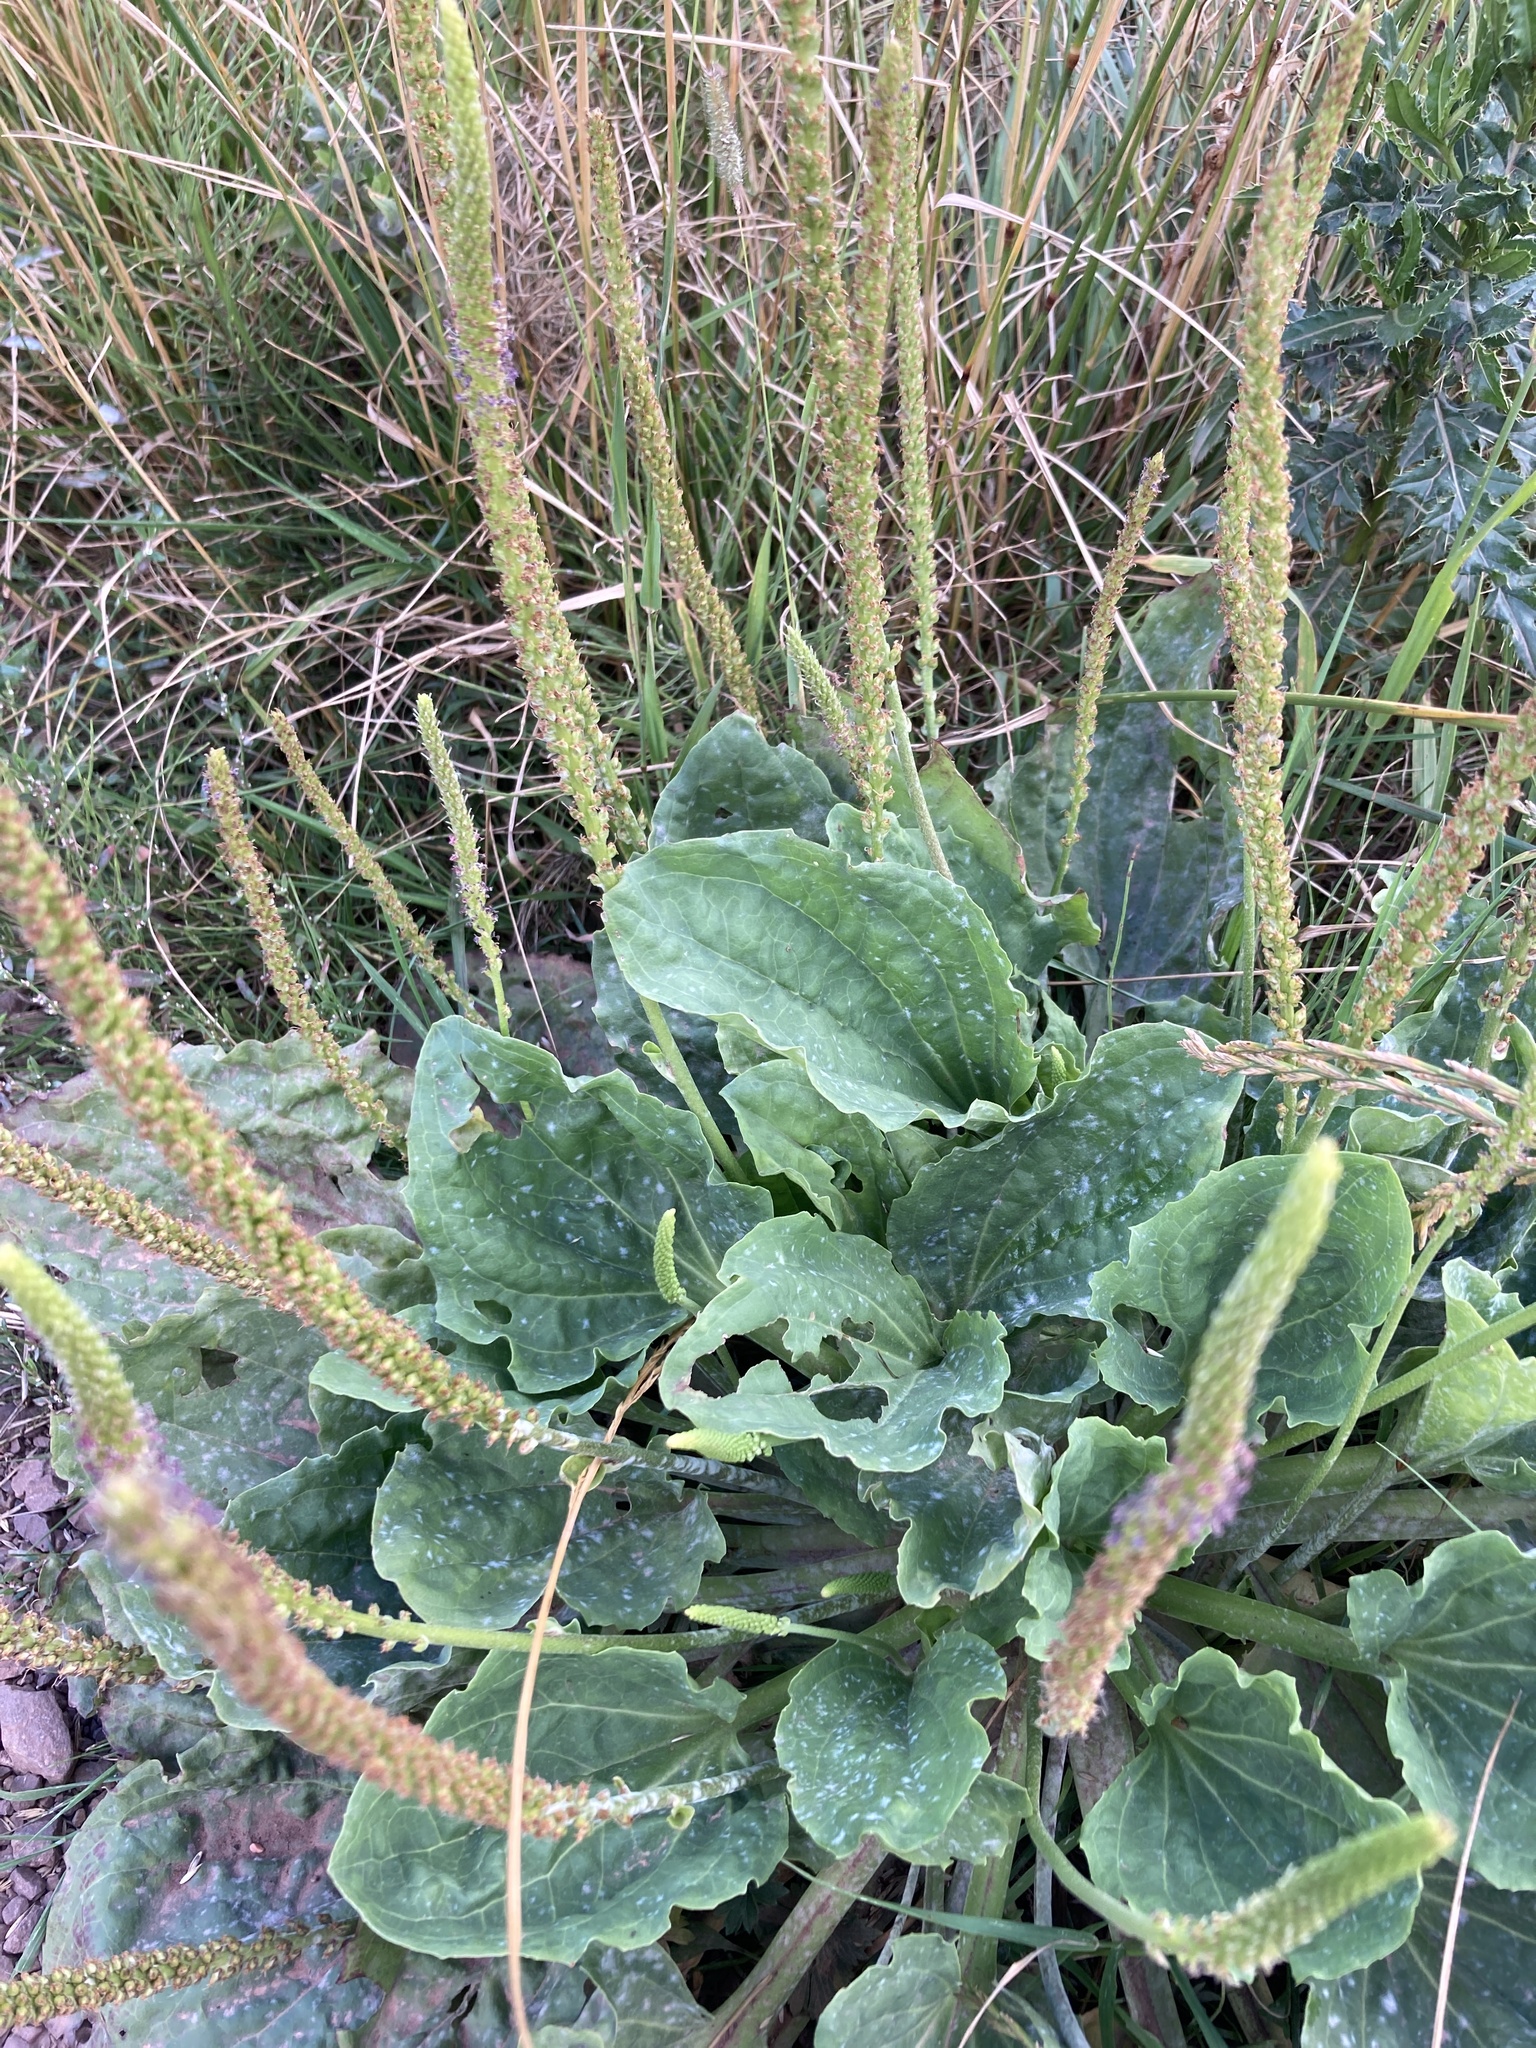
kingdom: Plantae
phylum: Tracheophyta
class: Magnoliopsida
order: Lamiales
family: Plantaginaceae
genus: Plantago
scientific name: Plantago major
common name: Common plantain
